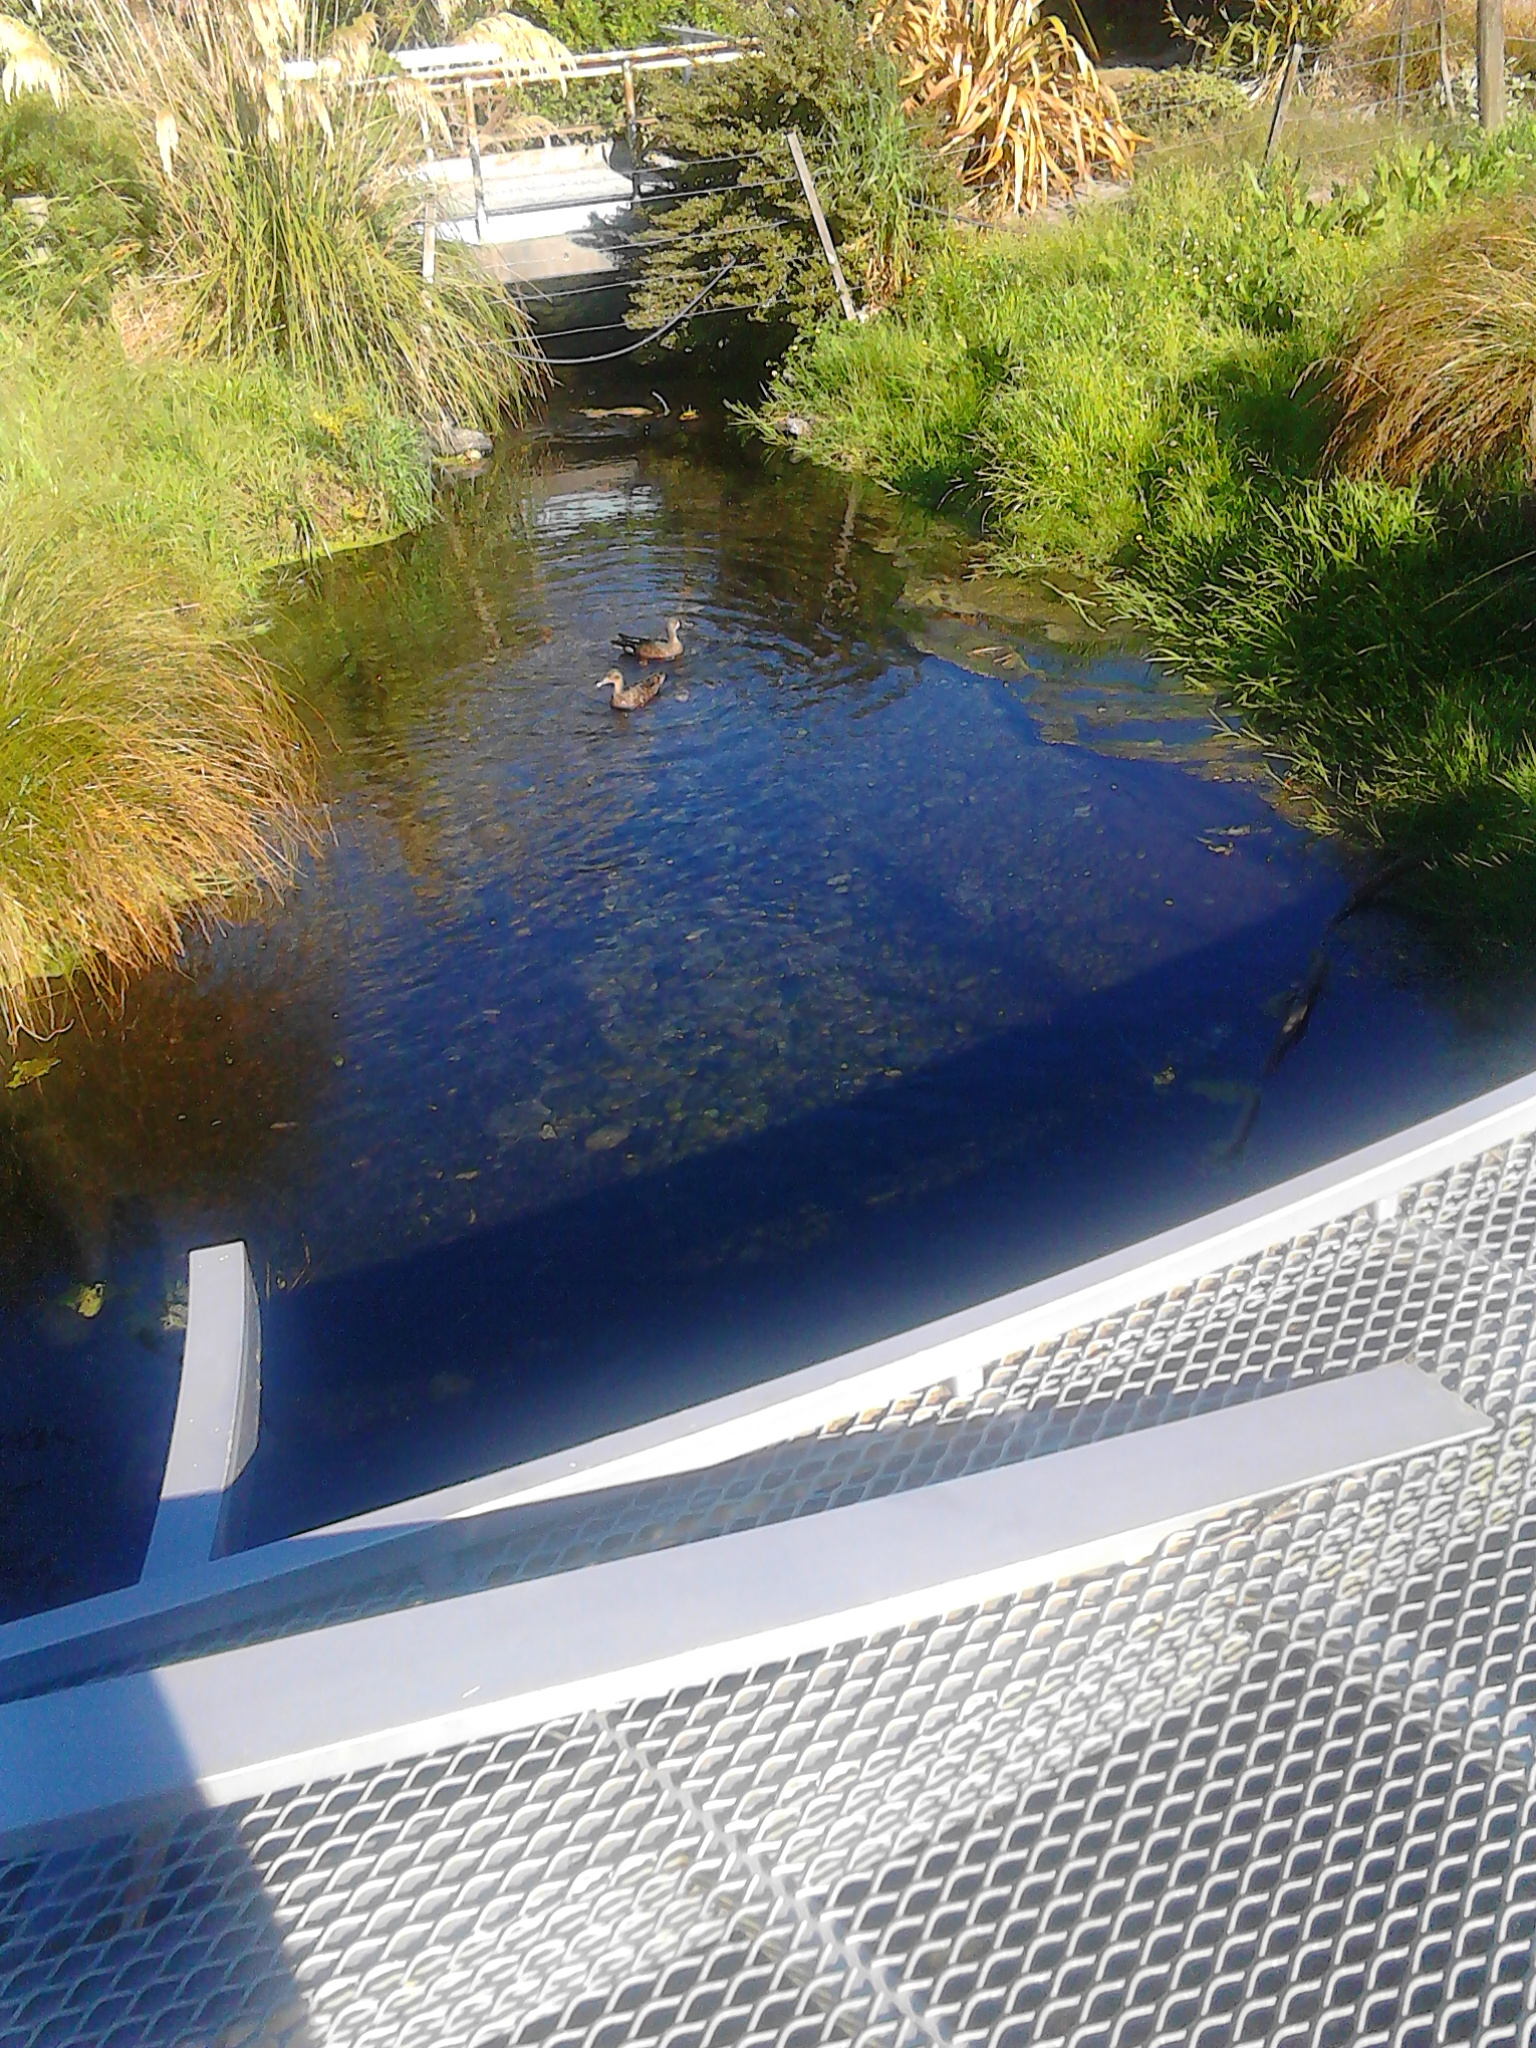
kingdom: Animalia
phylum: Chordata
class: Aves
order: Anseriformes
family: Anatidae
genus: Spatula
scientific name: Spatula rhynchotis
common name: Australian shoveler
